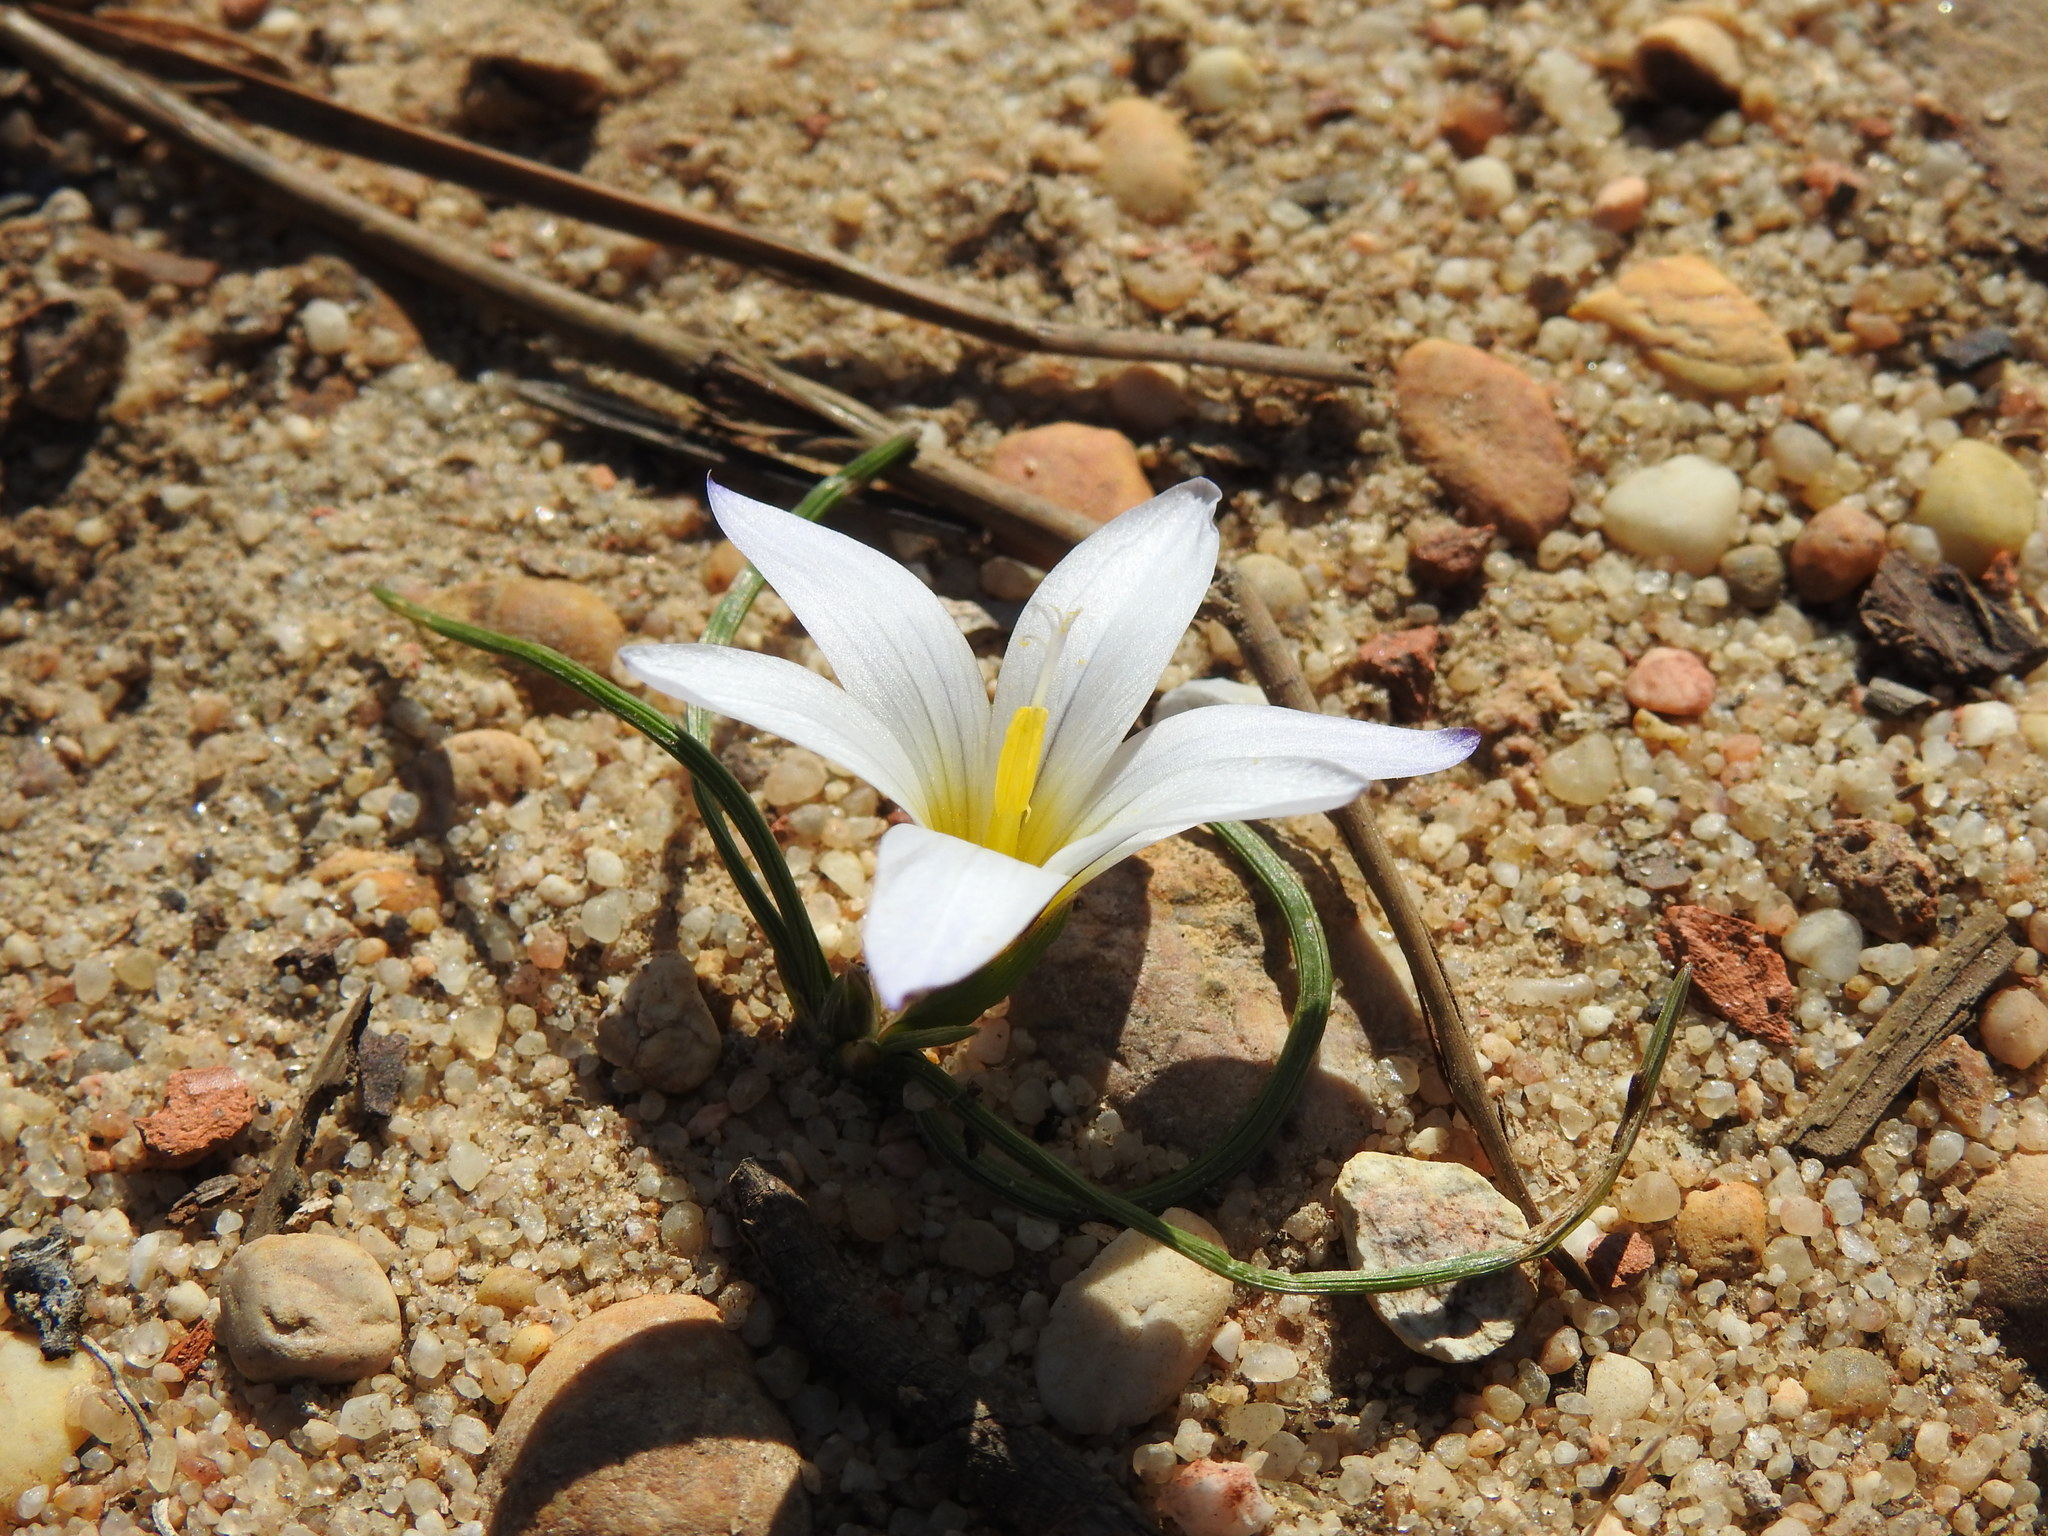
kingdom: Plantae
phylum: Tracheophyta
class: Liliopsida
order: Asparagales
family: Iridaceae
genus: Romulea
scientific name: Romulea bulbocodium
